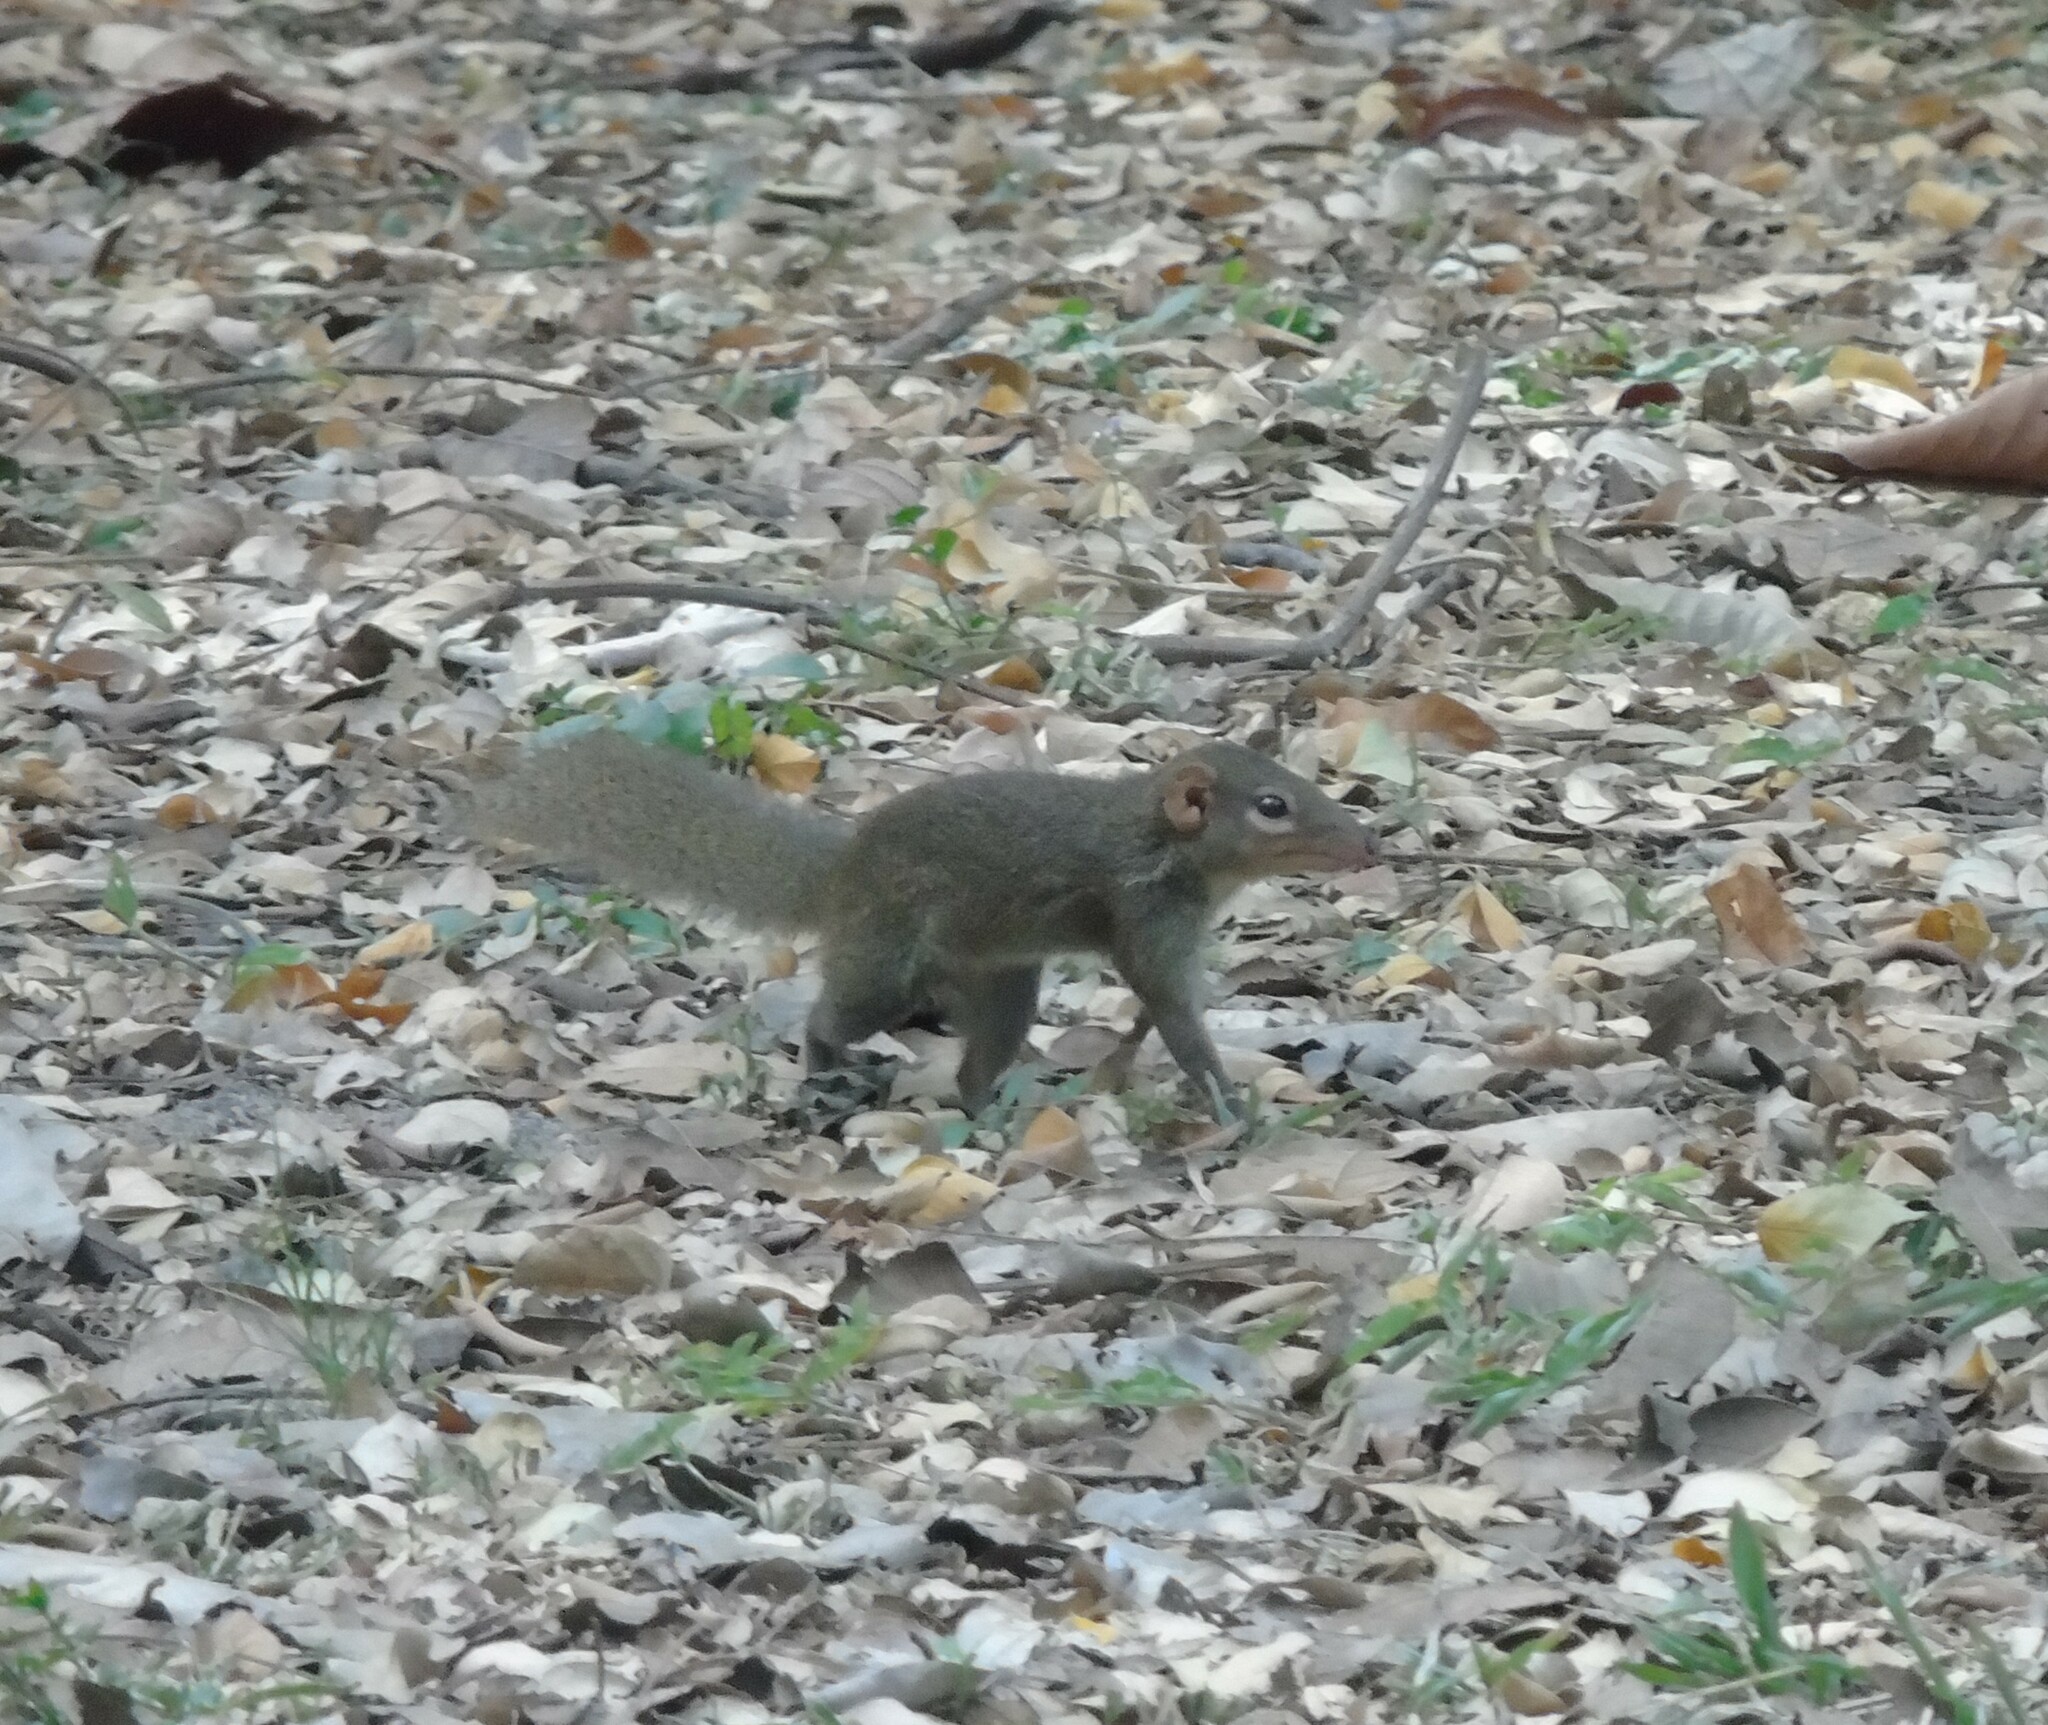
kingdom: Animalia
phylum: Chordata
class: Mammalia
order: Scandentia
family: Tupaiidae
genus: Tupaia
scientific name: Tupaia belangeri
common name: Northern treeshrew
